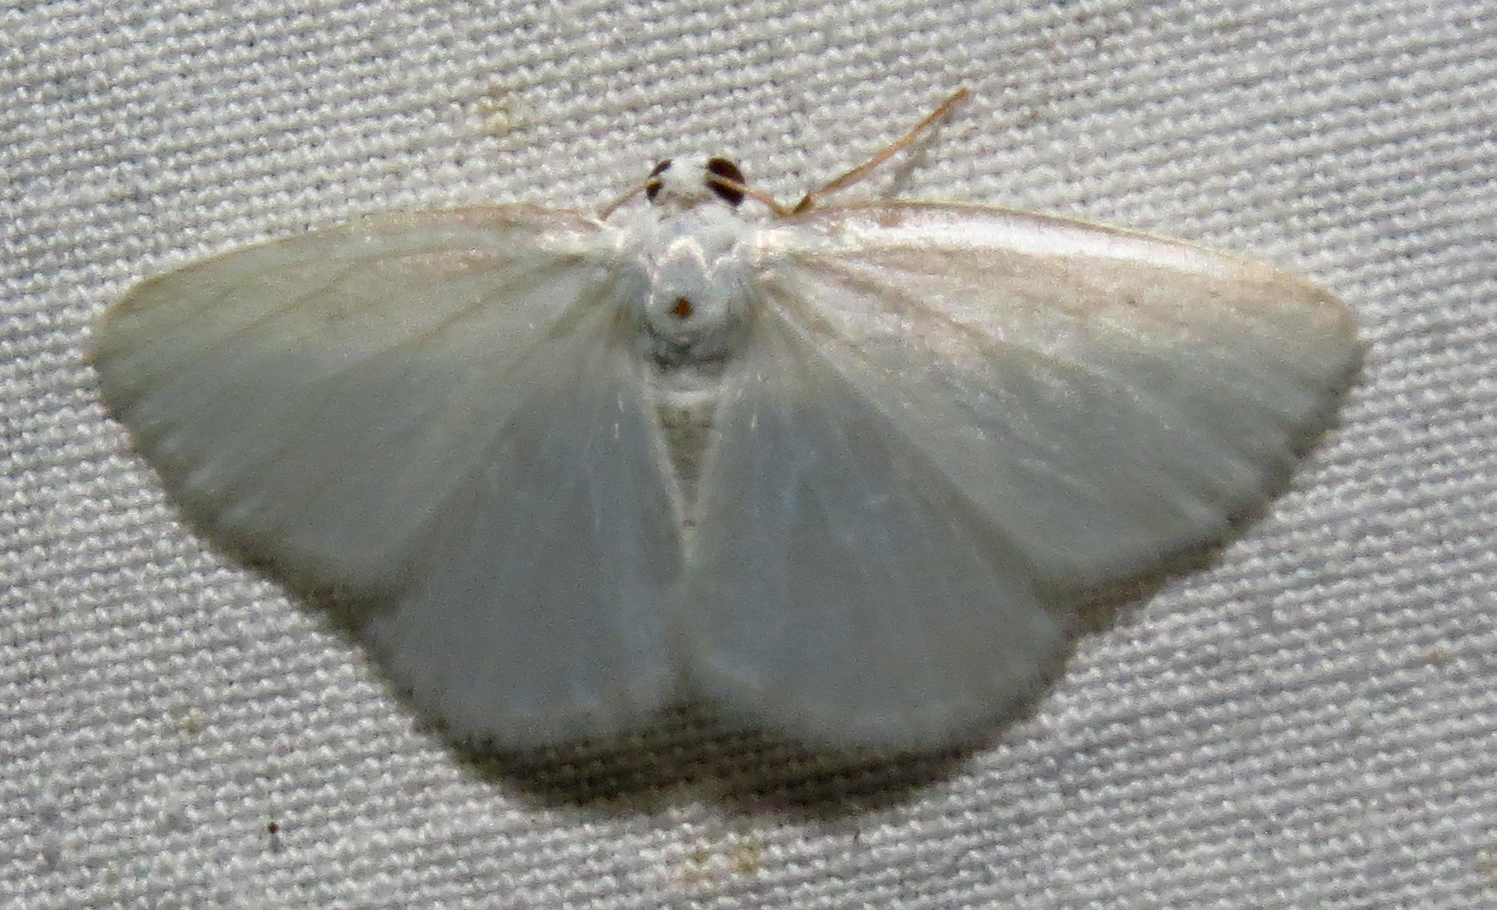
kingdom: Animalia
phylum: Arthropoda
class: Insecta
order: Lepidoptera
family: Geometridae
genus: Lomographa
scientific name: Lomographa vestaliata
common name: White spring moth
